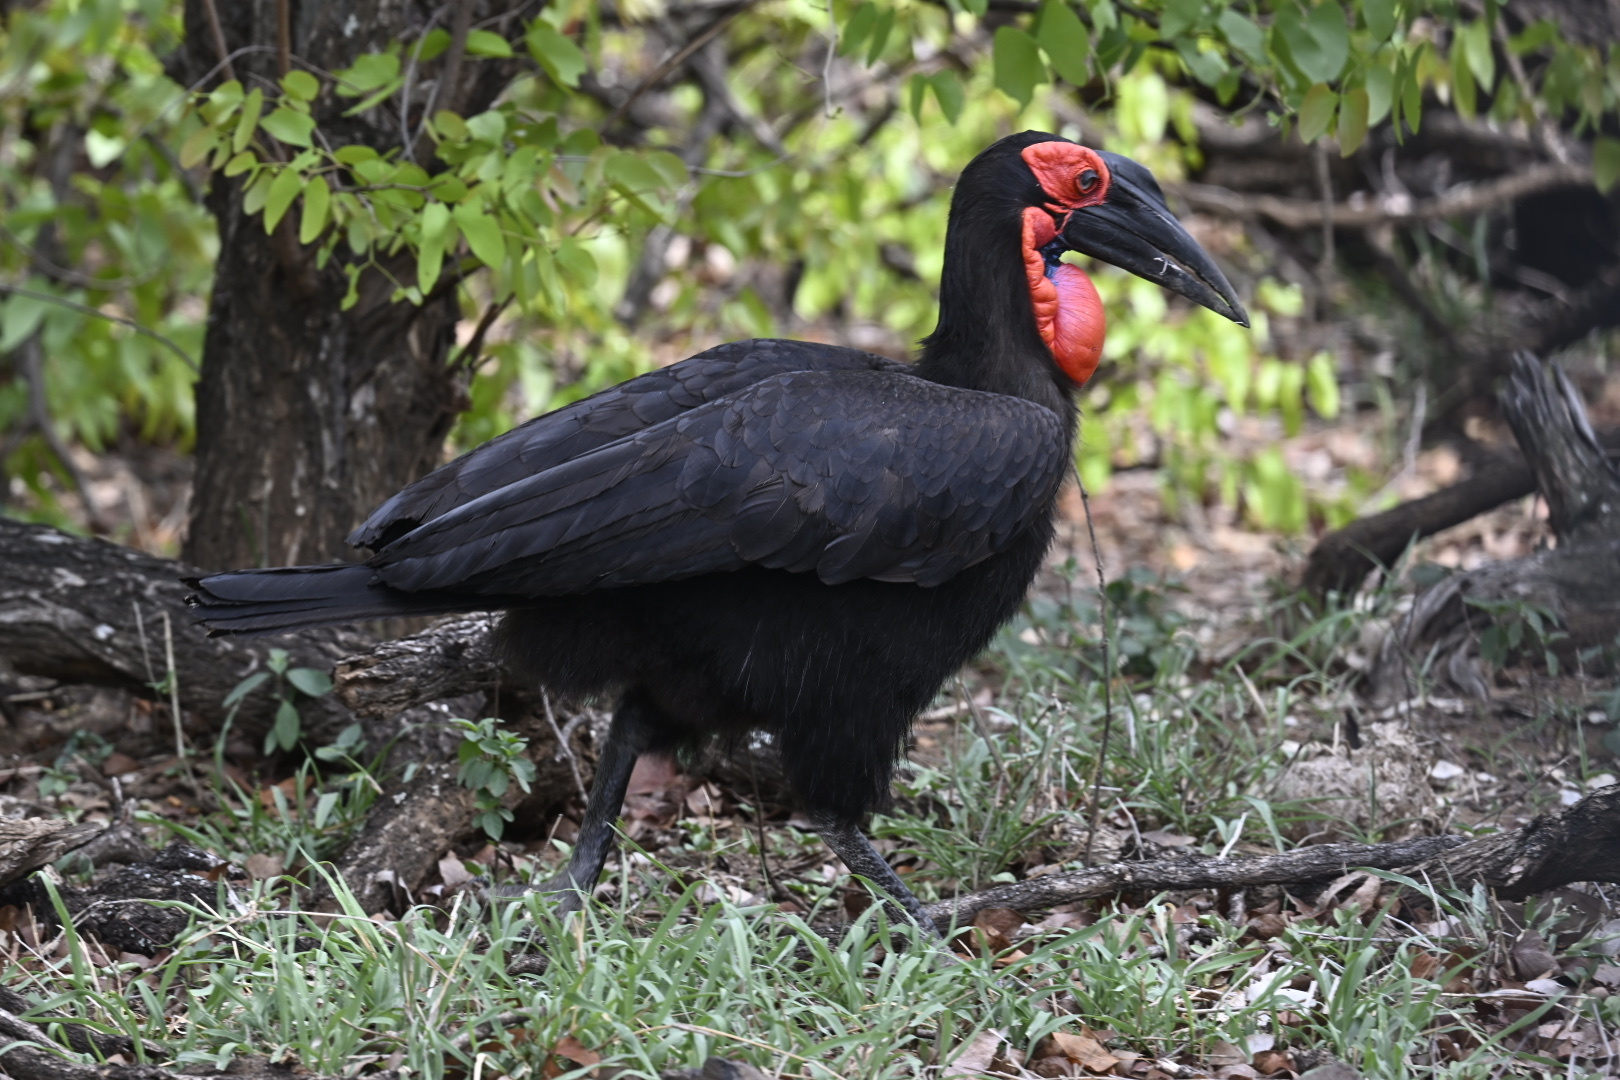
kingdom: Animalia
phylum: Chordata
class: Aves
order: Bucerotiformes
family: Bucorvidae
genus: Bucorvus
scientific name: Bucorvus leadbeateri
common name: Southern ground-hornbill
